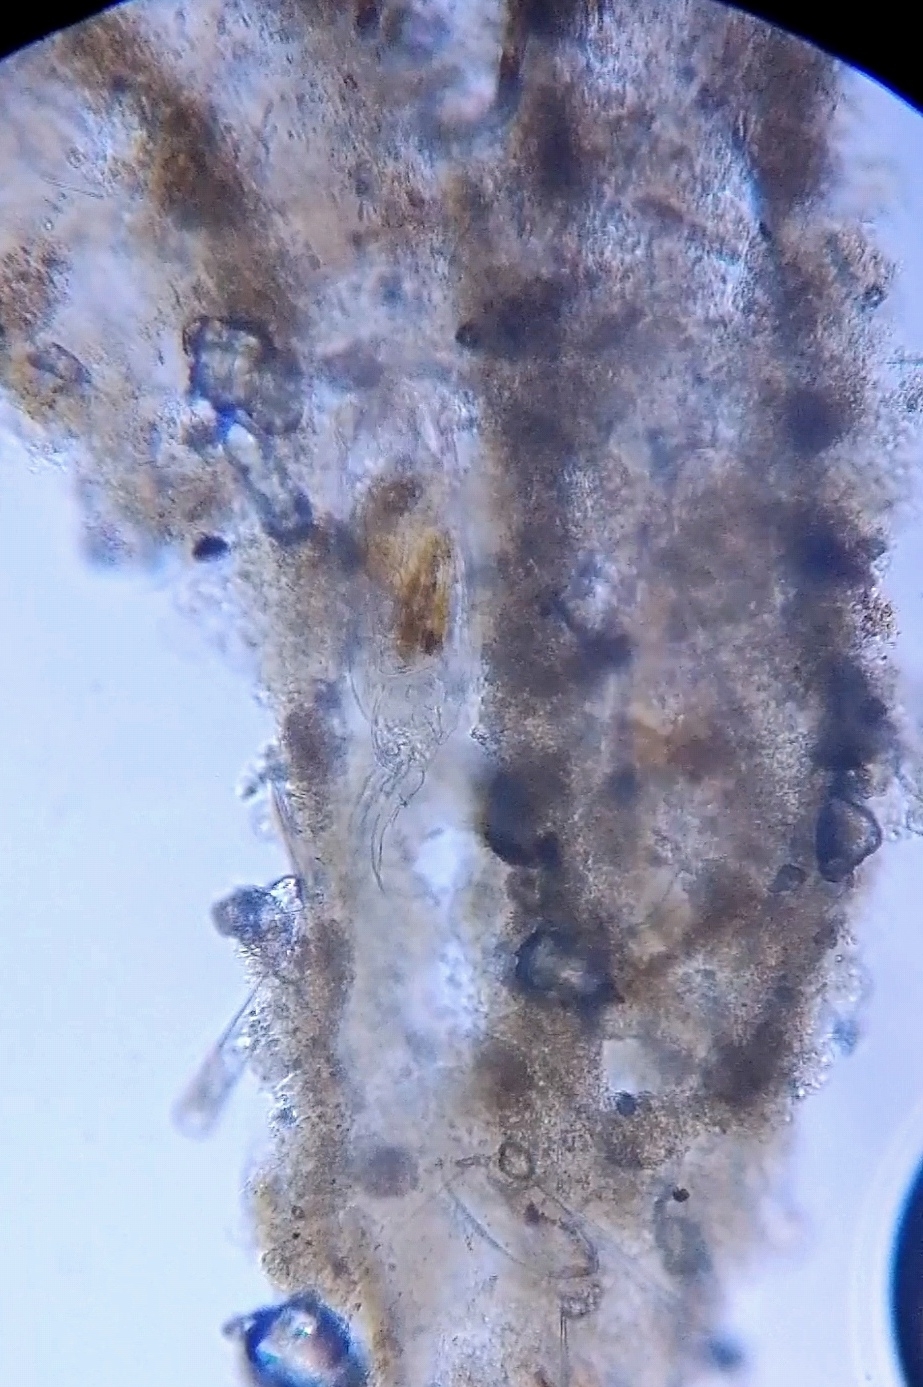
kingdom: Animalia
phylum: Rotifera
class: Eurotatoria
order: Ploima
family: Notommatidae
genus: Cephalodella
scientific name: Cephalodella forficula
